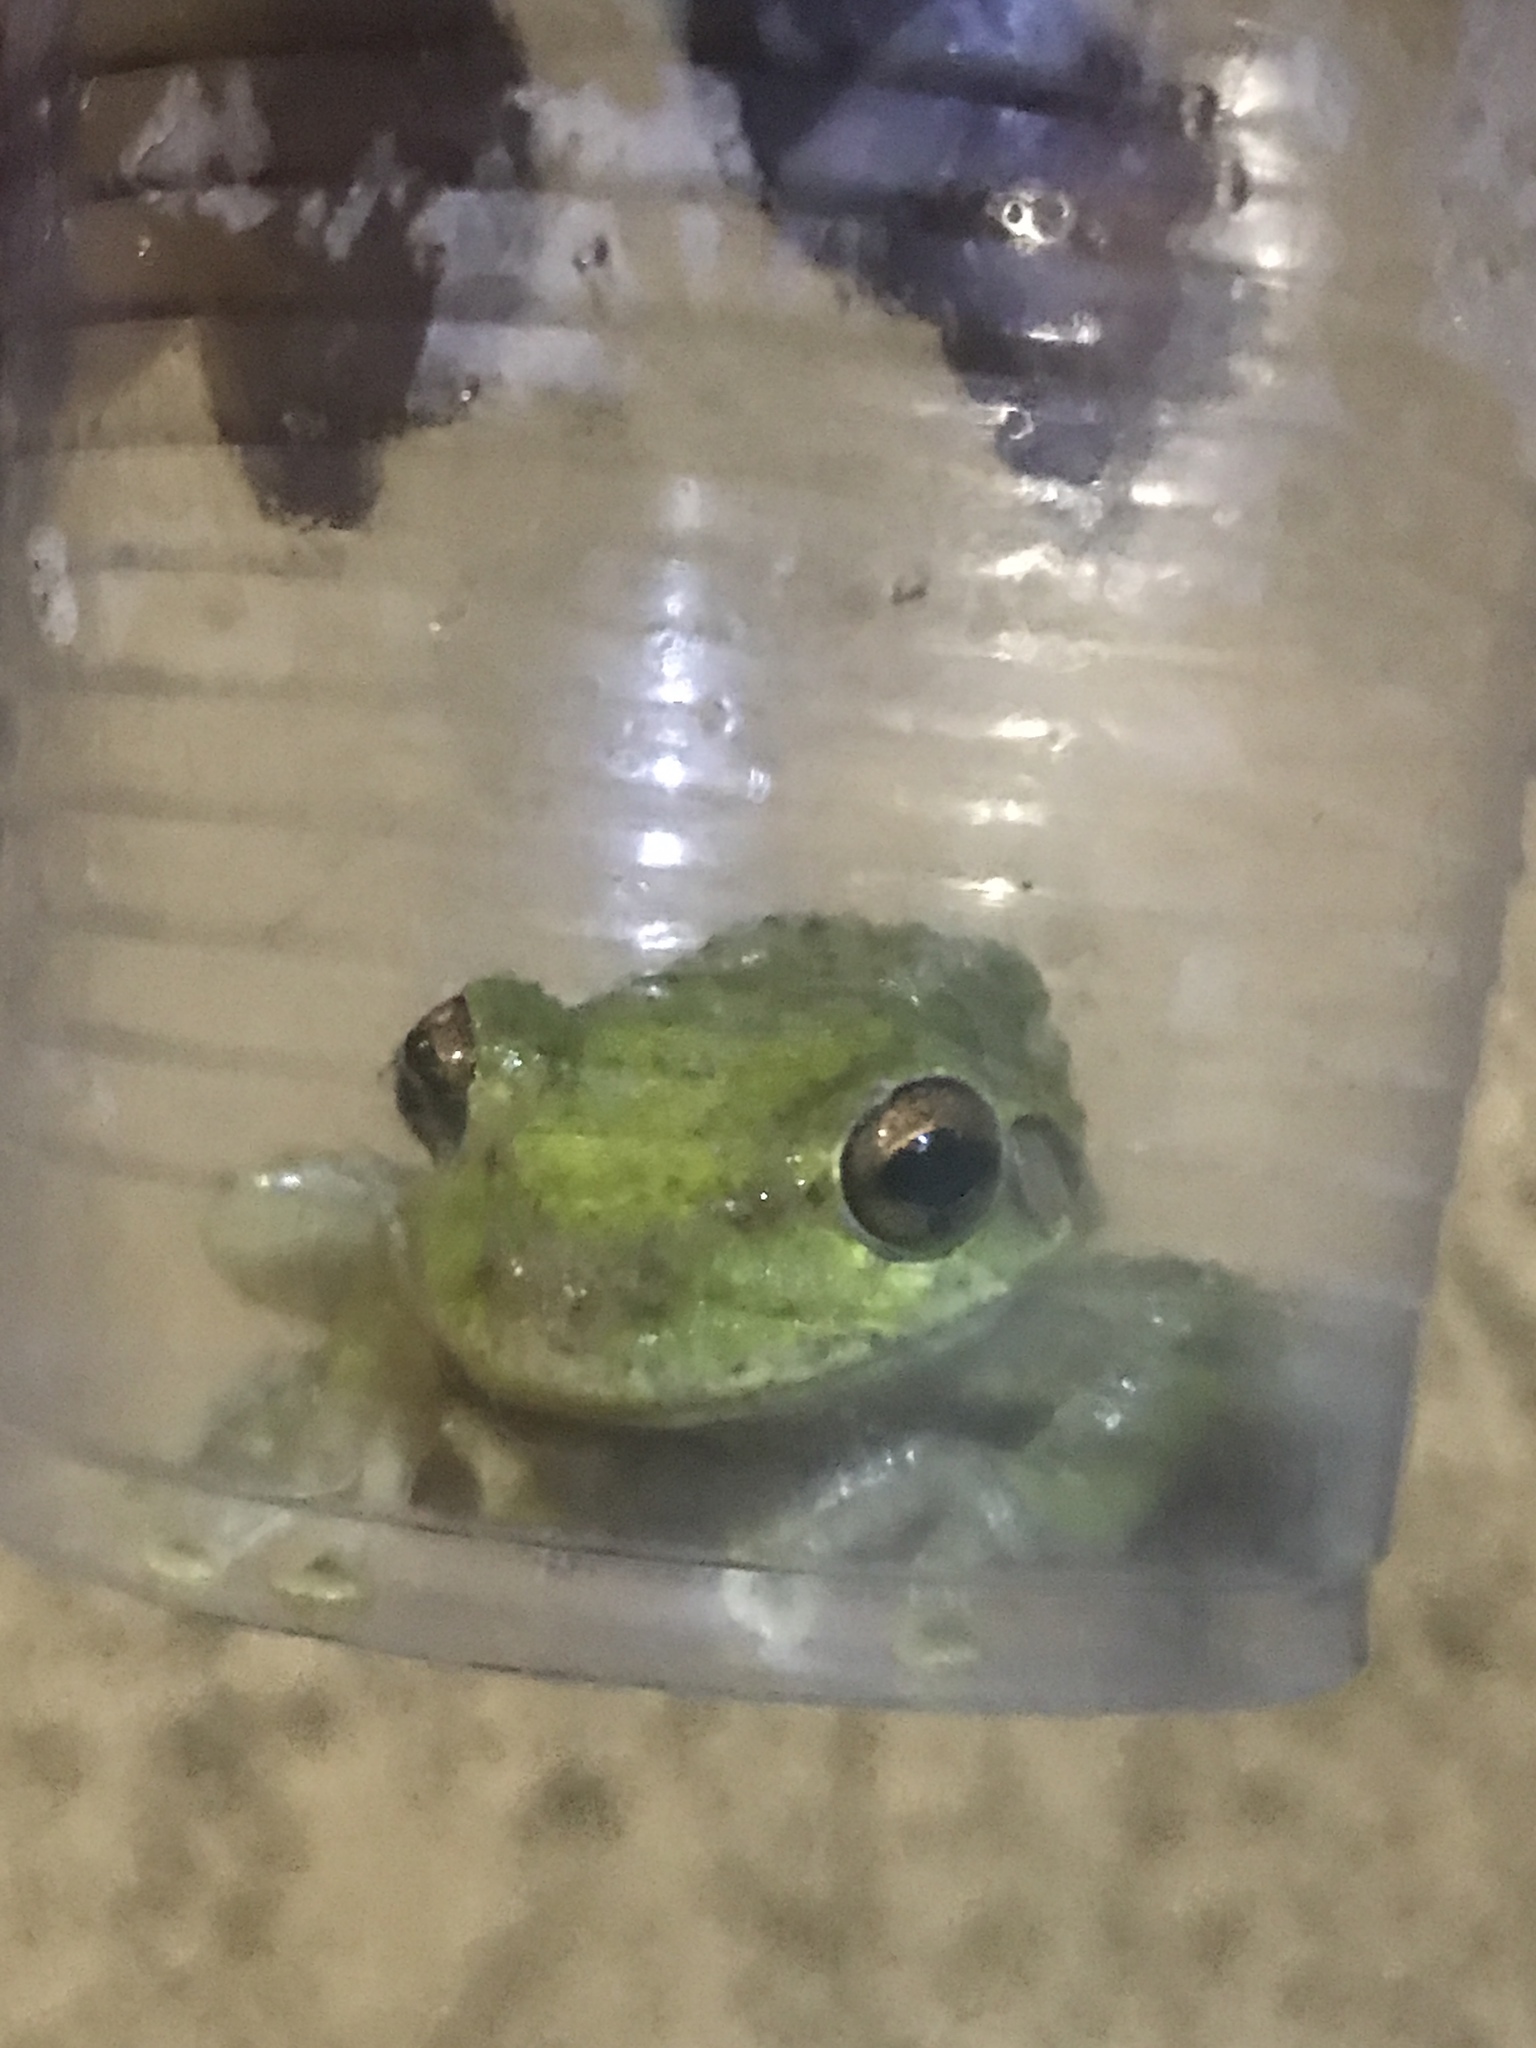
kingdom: Animalia
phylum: Chordata
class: Amphibia
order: Anura
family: Hylidae
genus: Osteopilus
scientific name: Osteopilus septentrionalis
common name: Cuban treefrog
